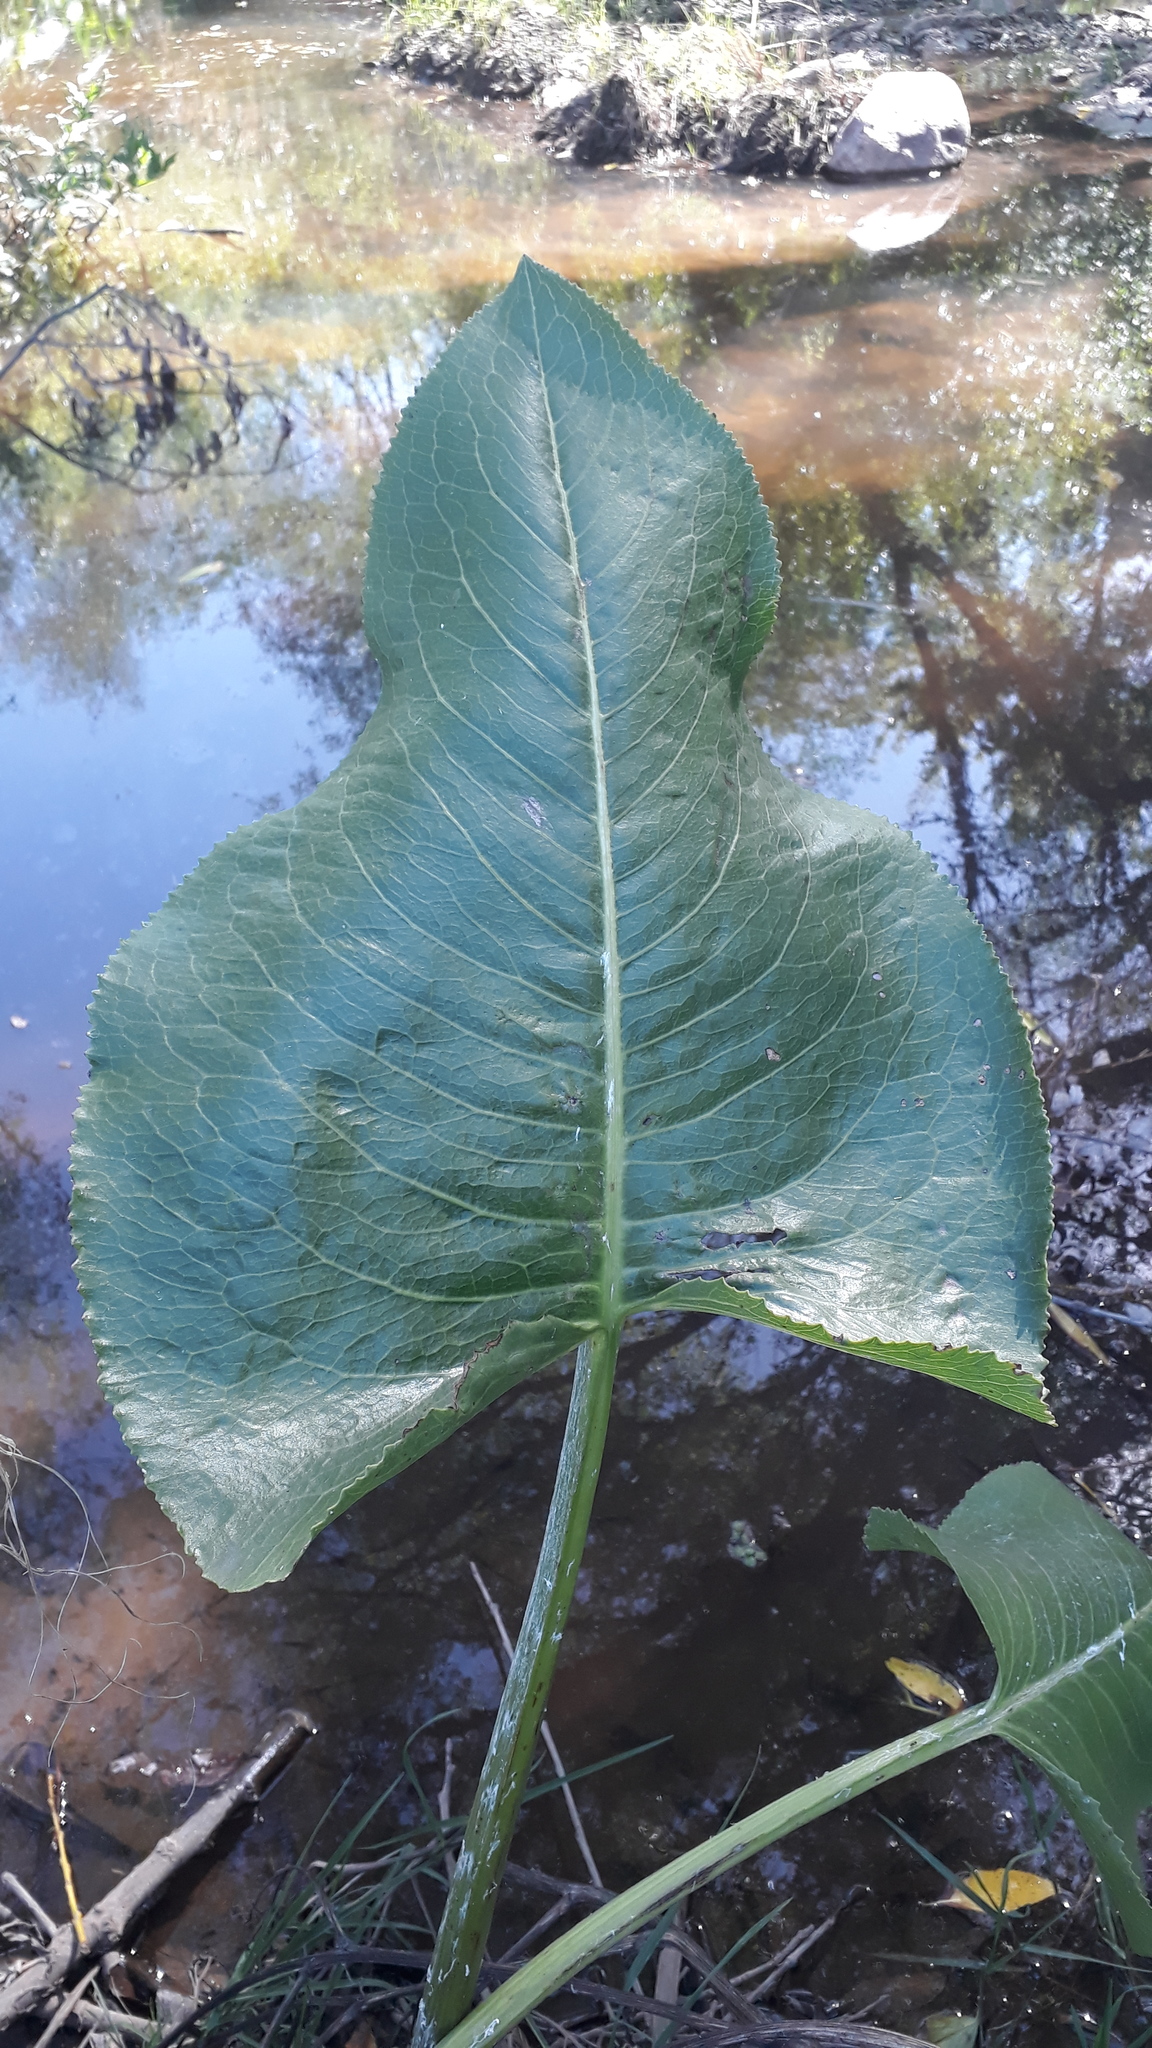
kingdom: Plantae
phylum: Tracheophyta
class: Magnoliopsida
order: Asterales
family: Asteraceae
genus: Senecio
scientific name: Senecio bonariensis
